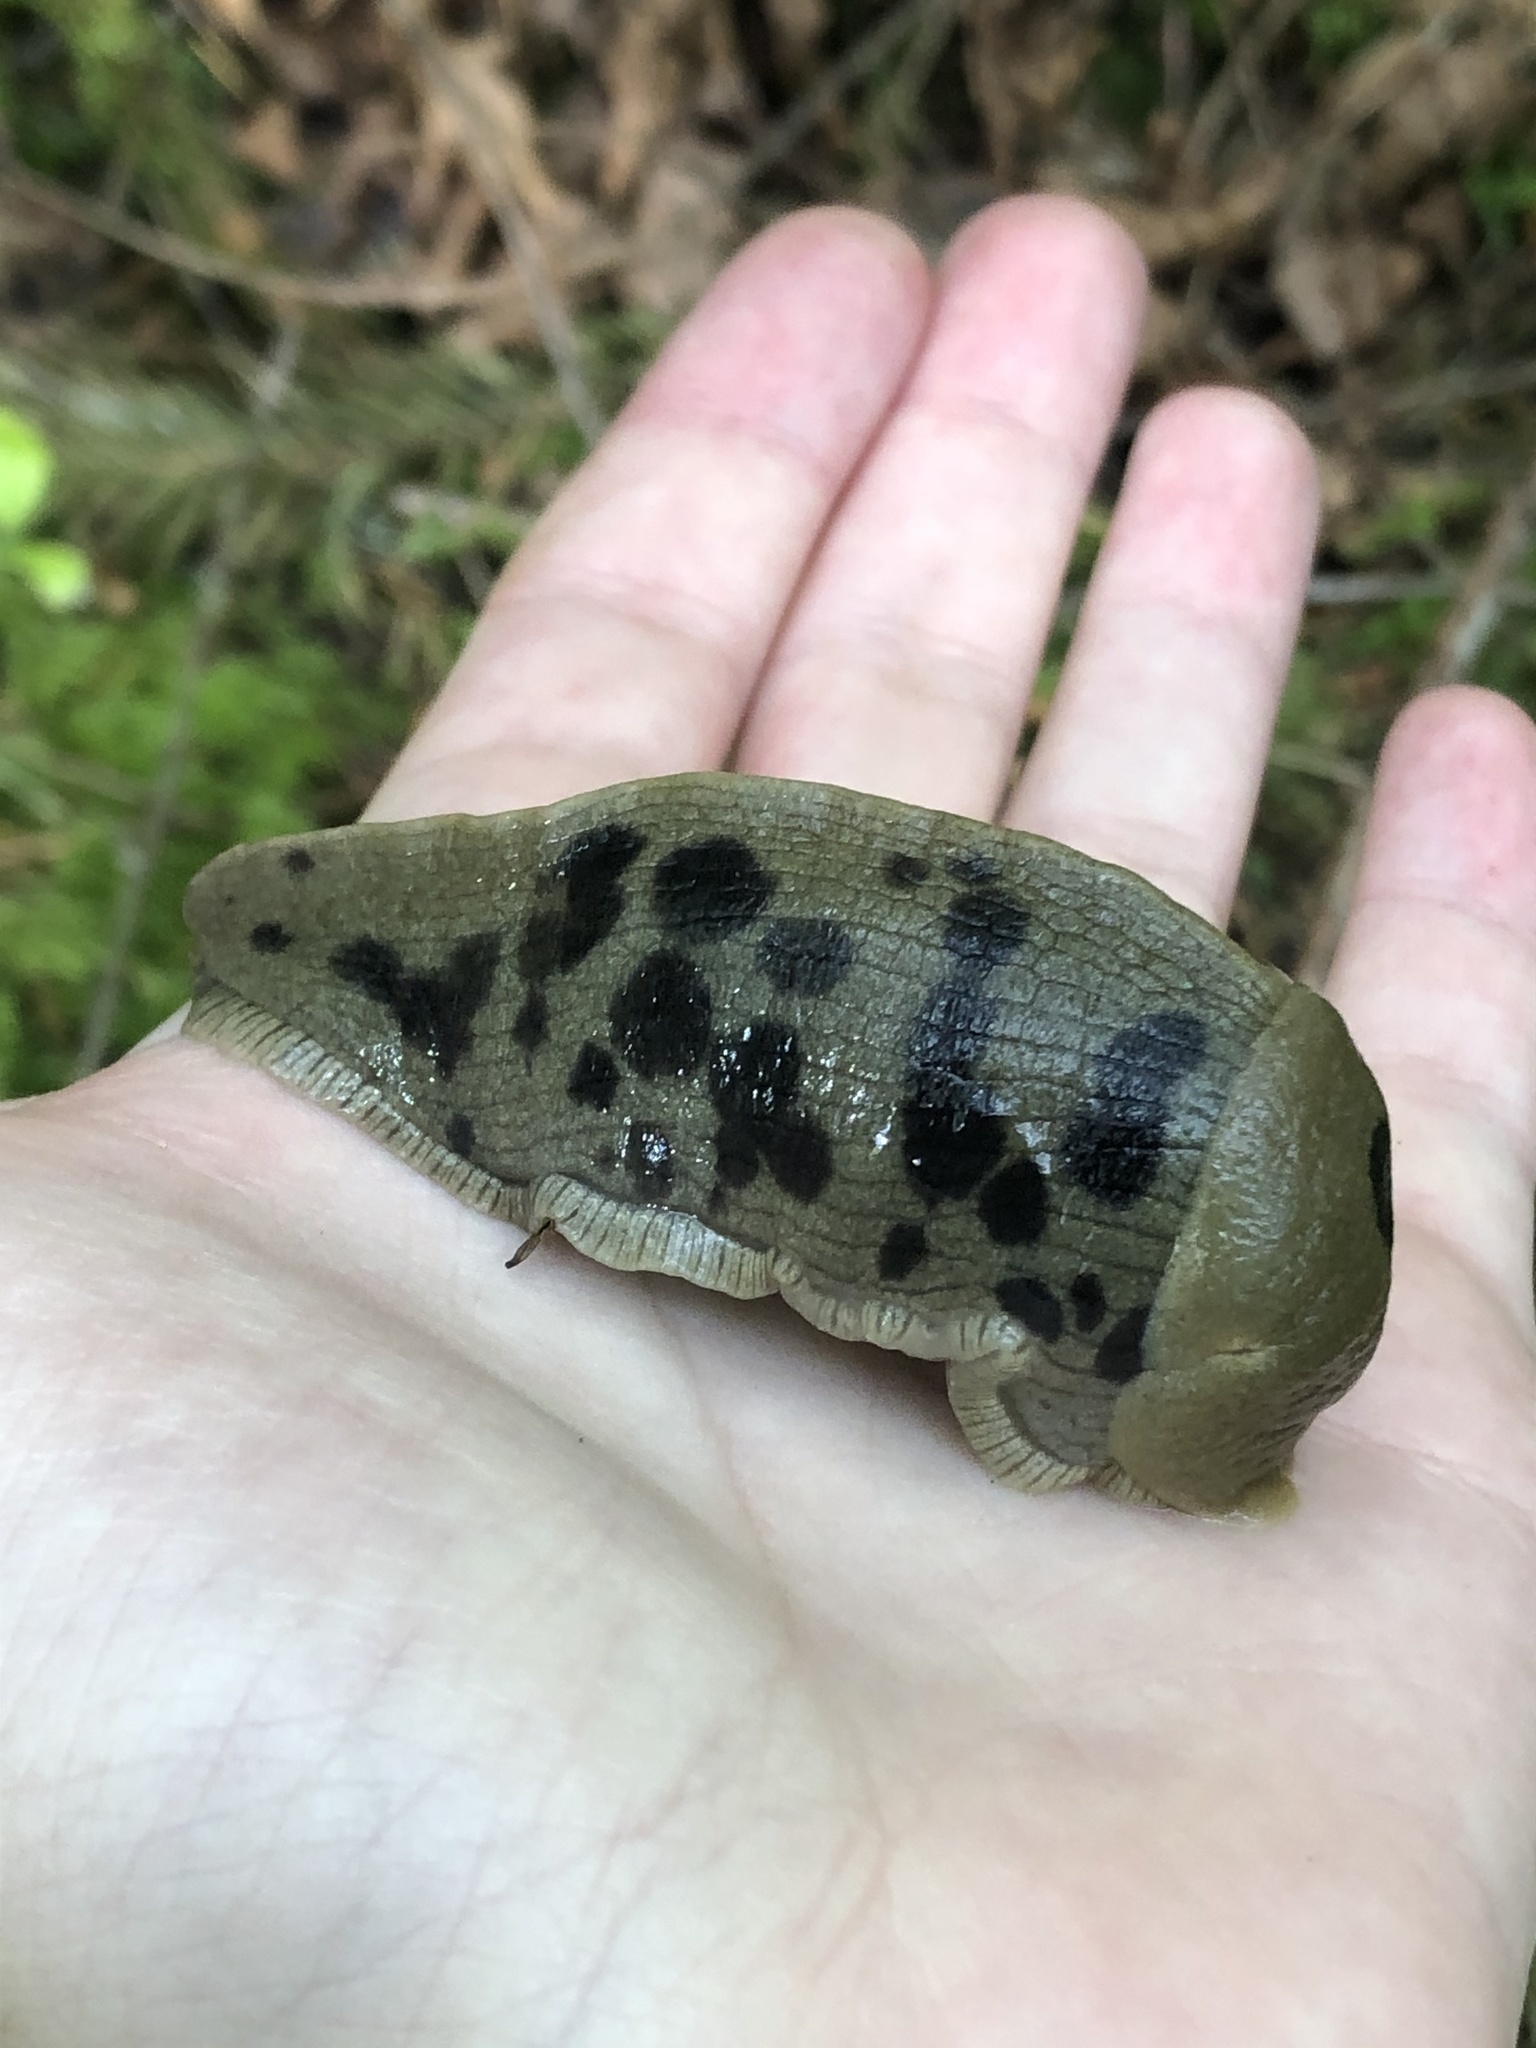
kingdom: Animalia
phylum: Mollusca
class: Gastropoda
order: Stylommatophora
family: Ariolimacidae
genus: Ariolimax
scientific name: Ariolimax columbianus
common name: Pacific banana slug
